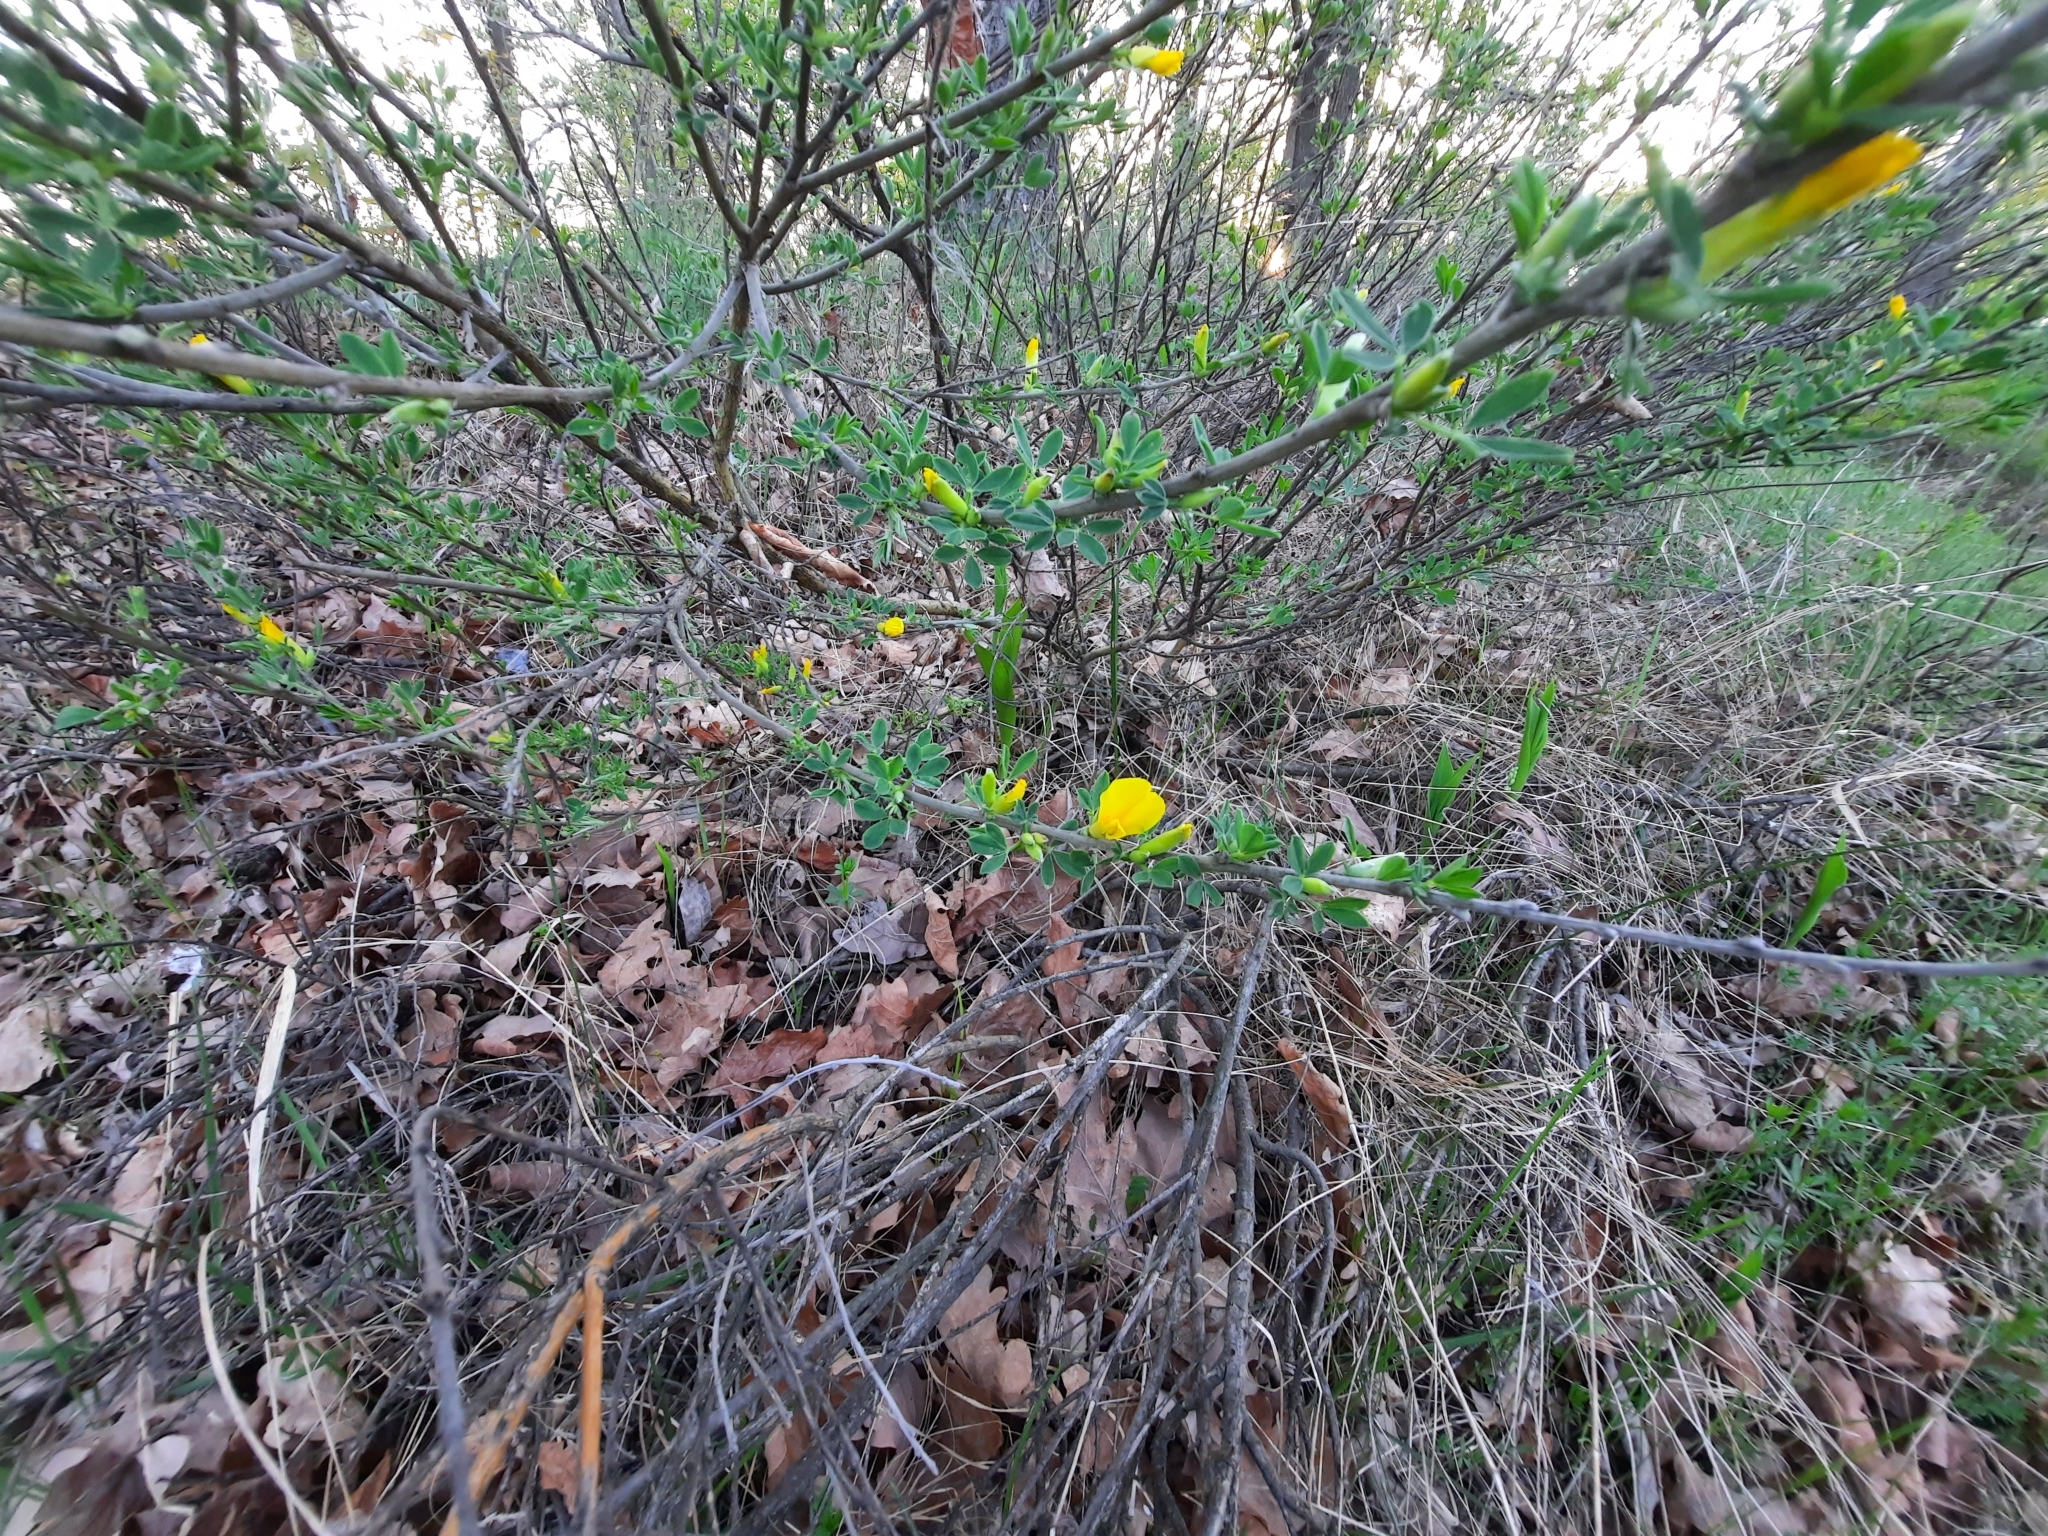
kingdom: Plantae
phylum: Tracheophyta
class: Magnoliopsida
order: Fabales
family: Fabaceae
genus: Chamaecytisus
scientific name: Chamaecytisus ruthenicus
